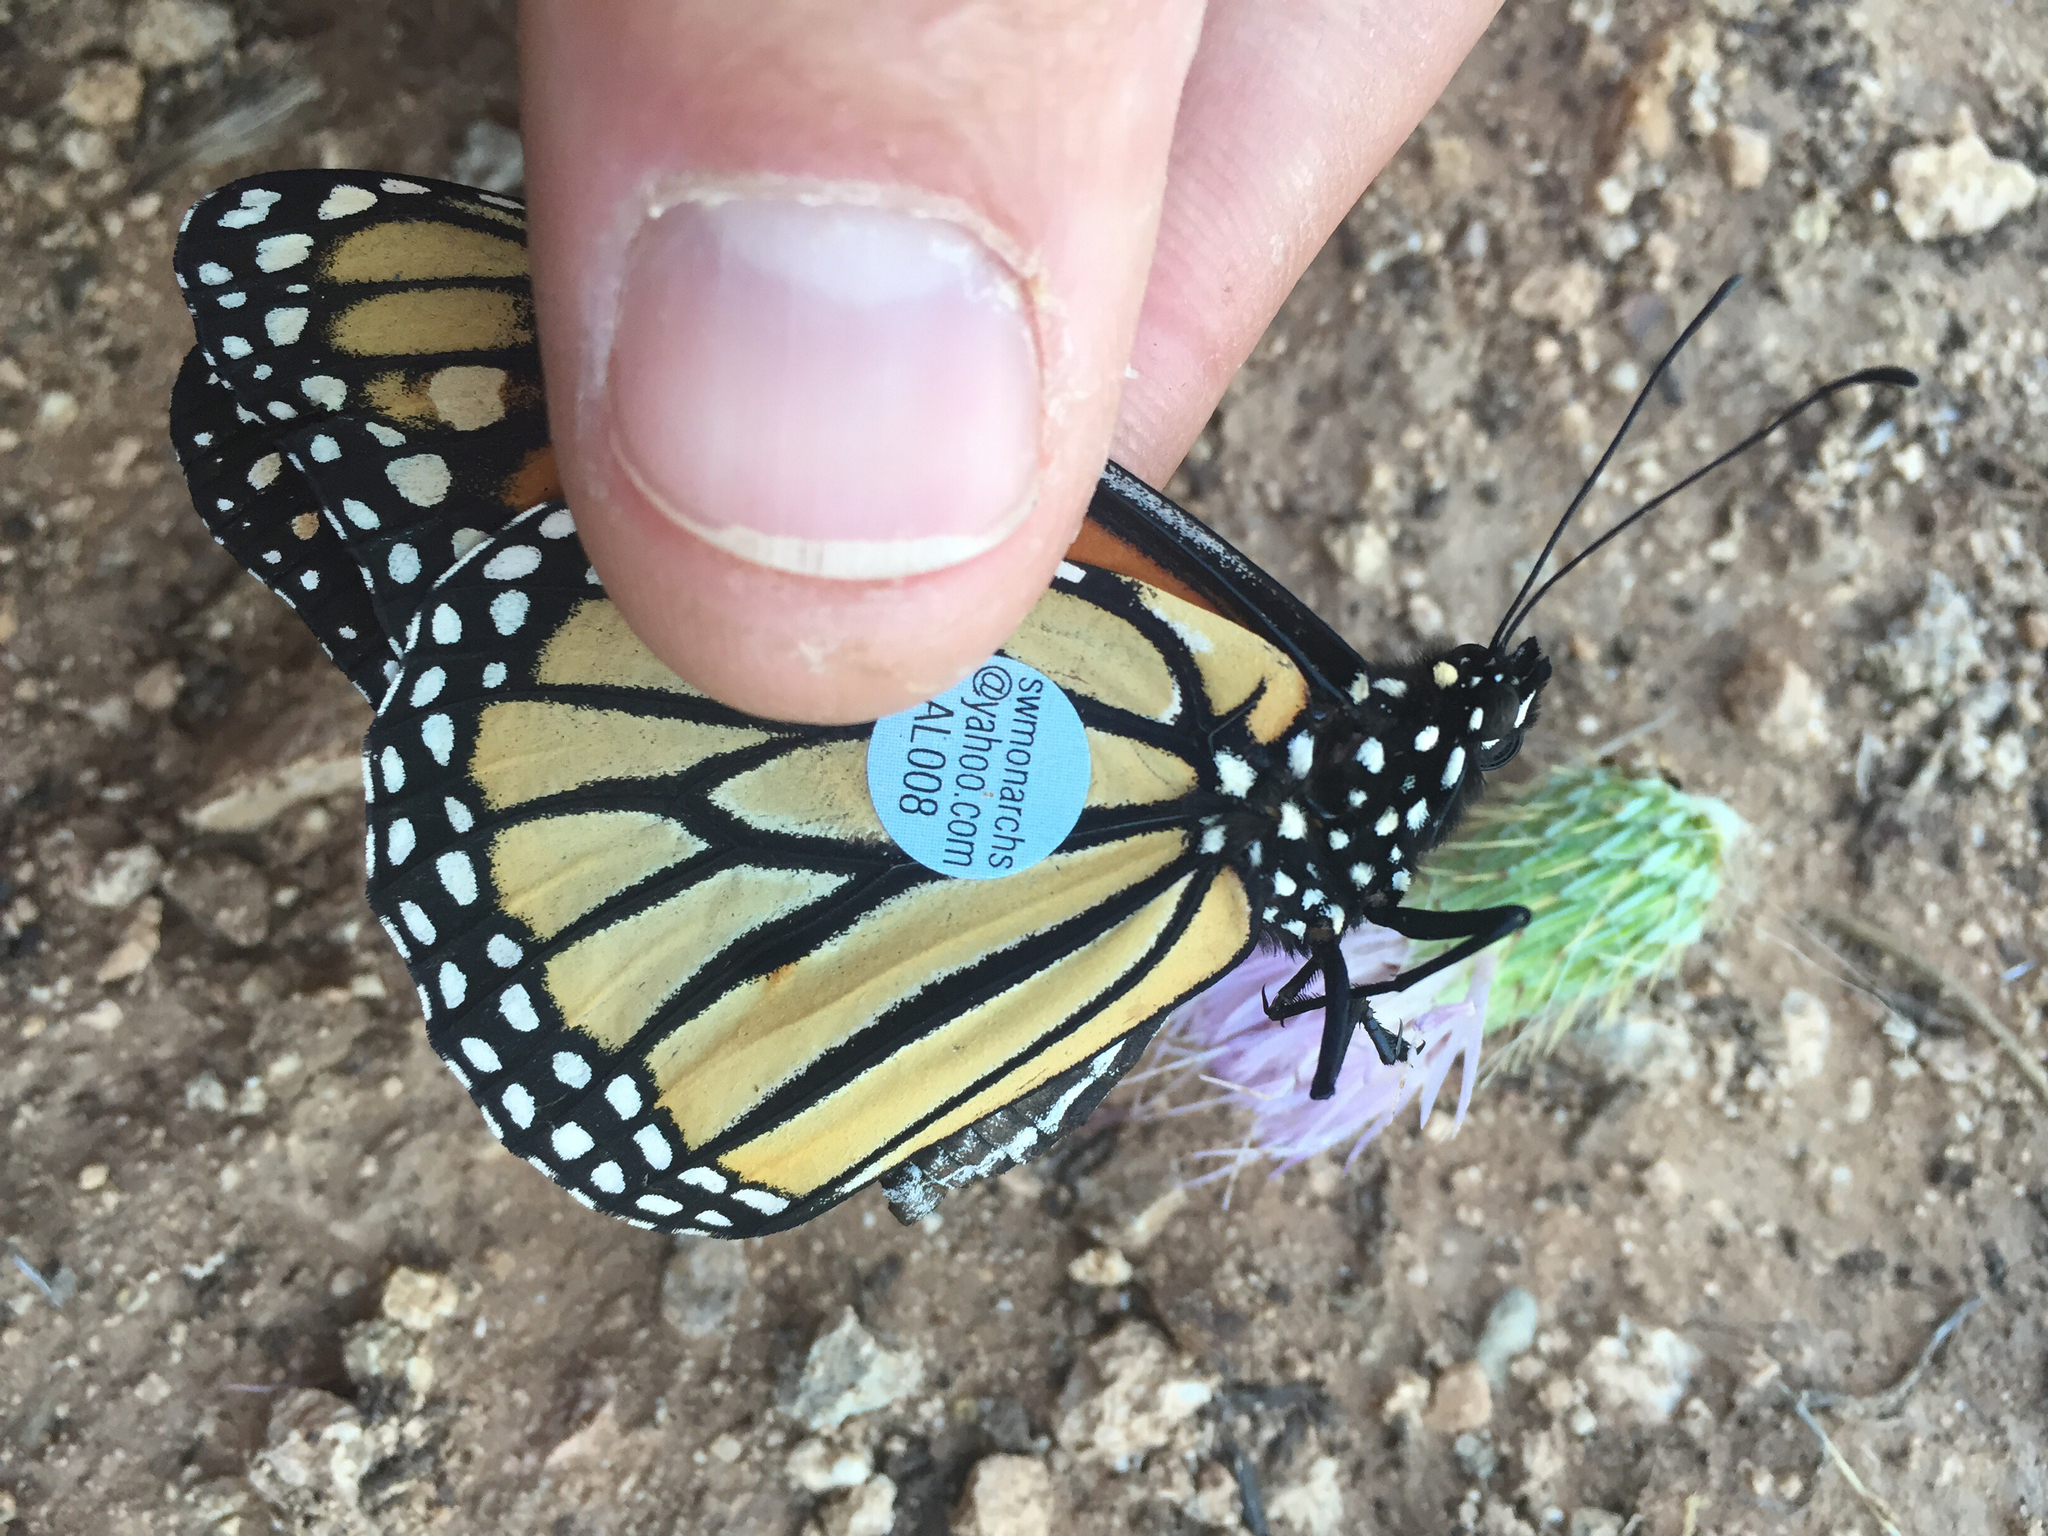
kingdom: Animalia
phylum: Arthropoda
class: Insecta
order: Lepidoptera
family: Nymphalidae
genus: Danaus
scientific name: Danaus plexippus
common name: Monarch
